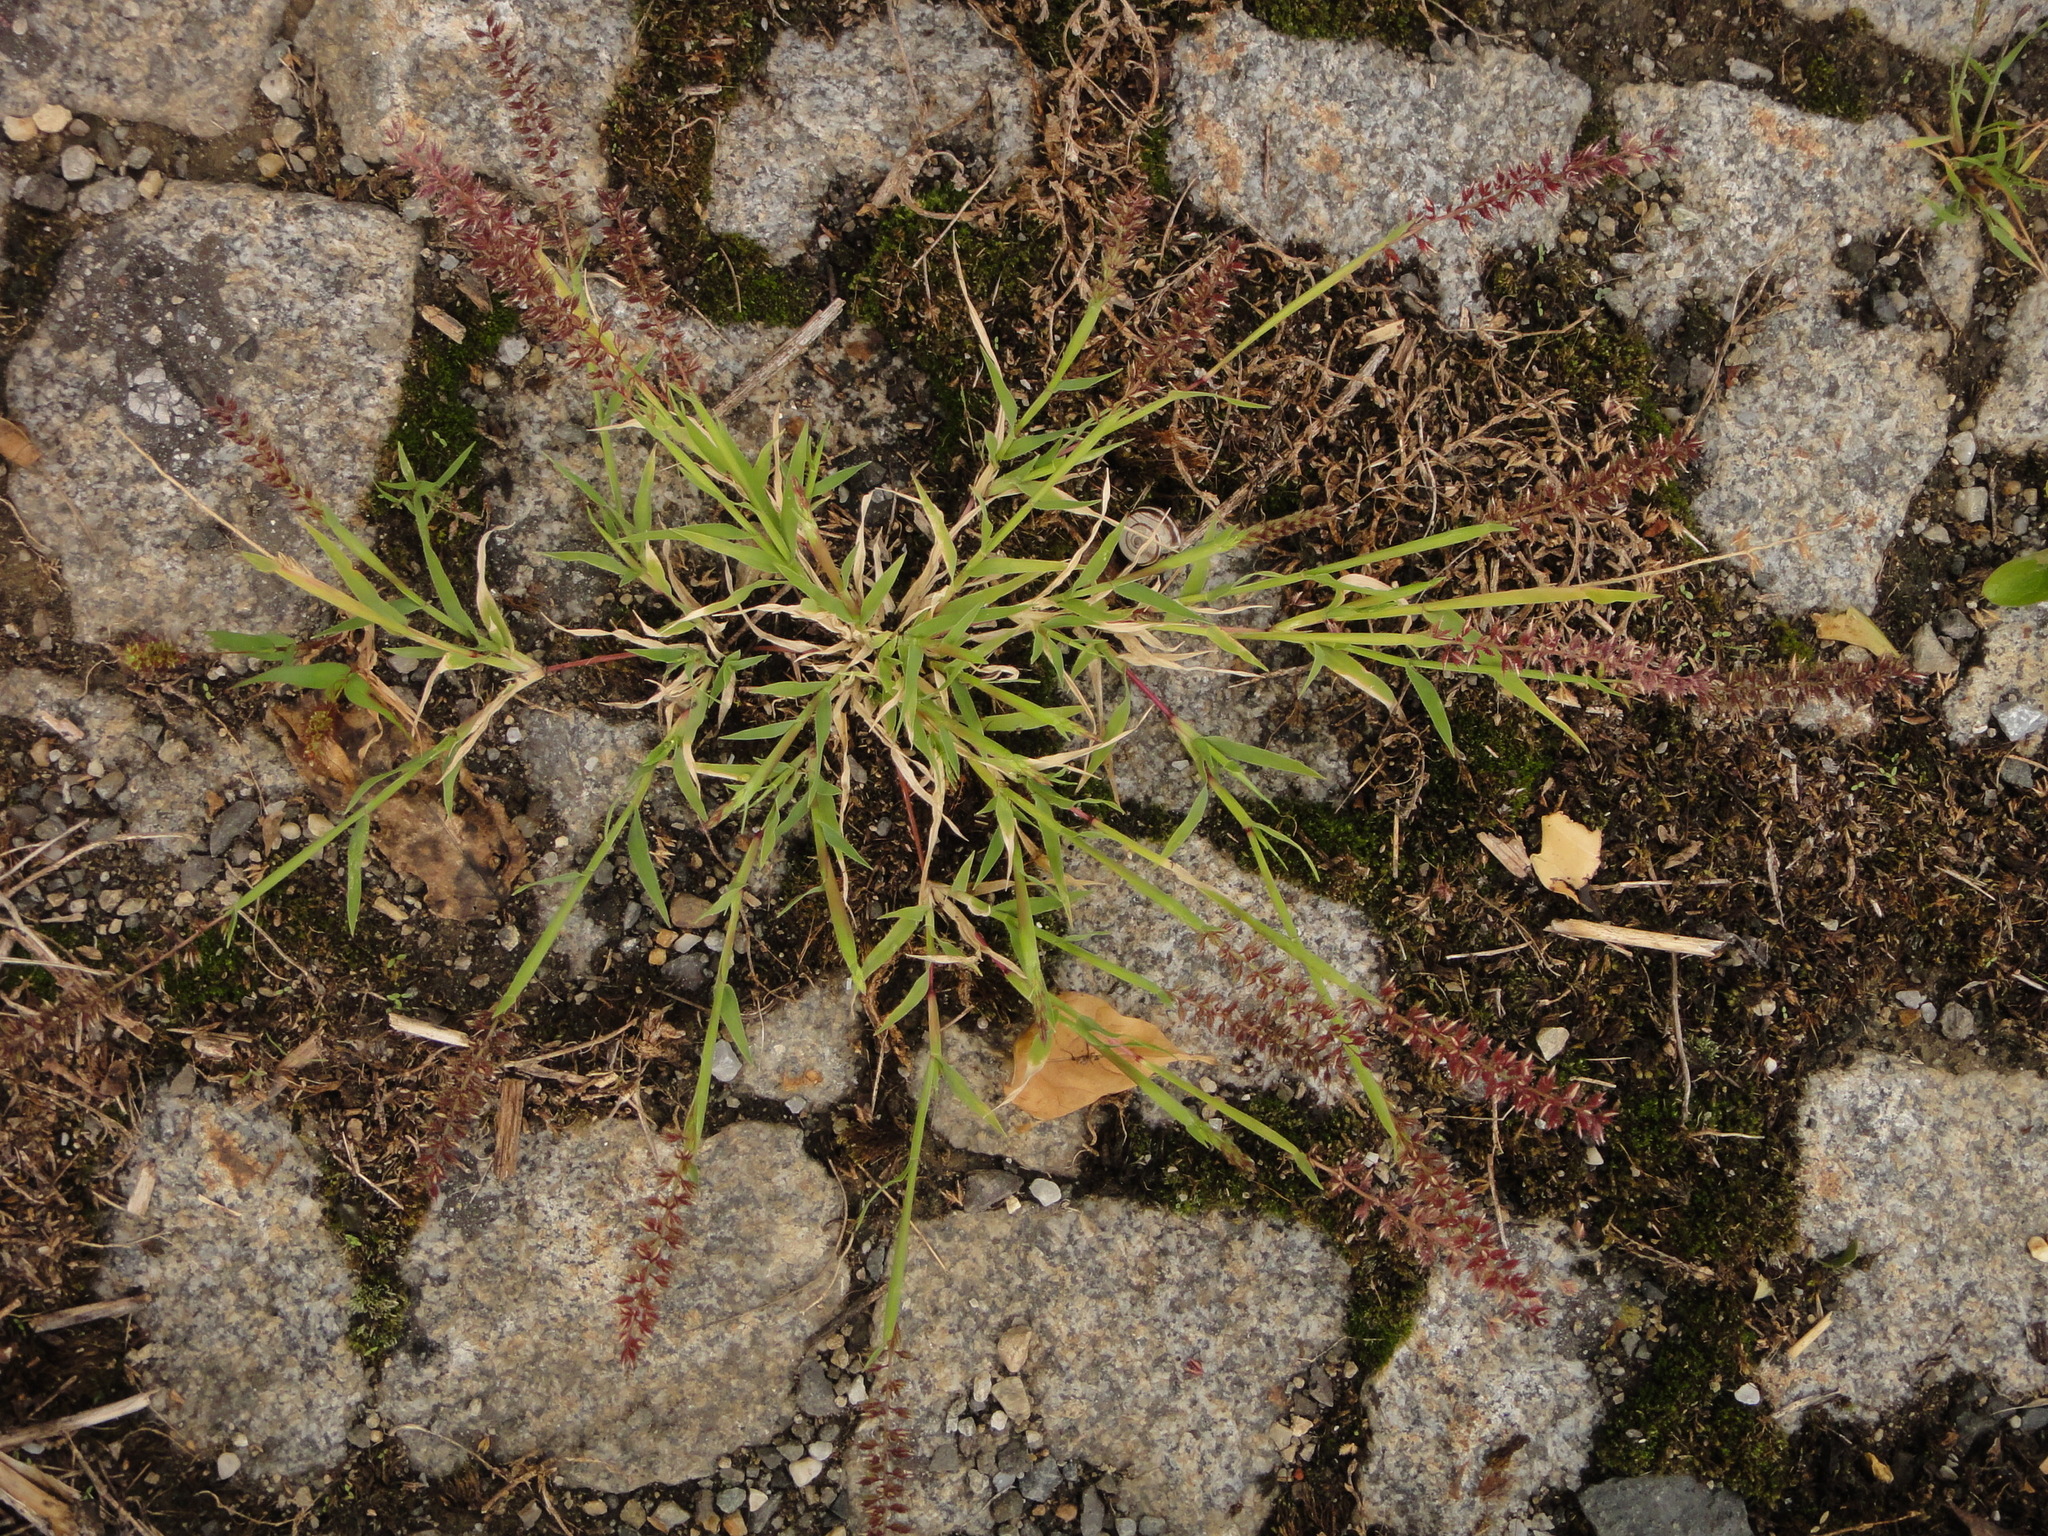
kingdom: Plantae
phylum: Tracheophyta
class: Liliopsida
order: Poales
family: Poaceae
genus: Tragus
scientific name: Tragus racemosus
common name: European bur-grass
